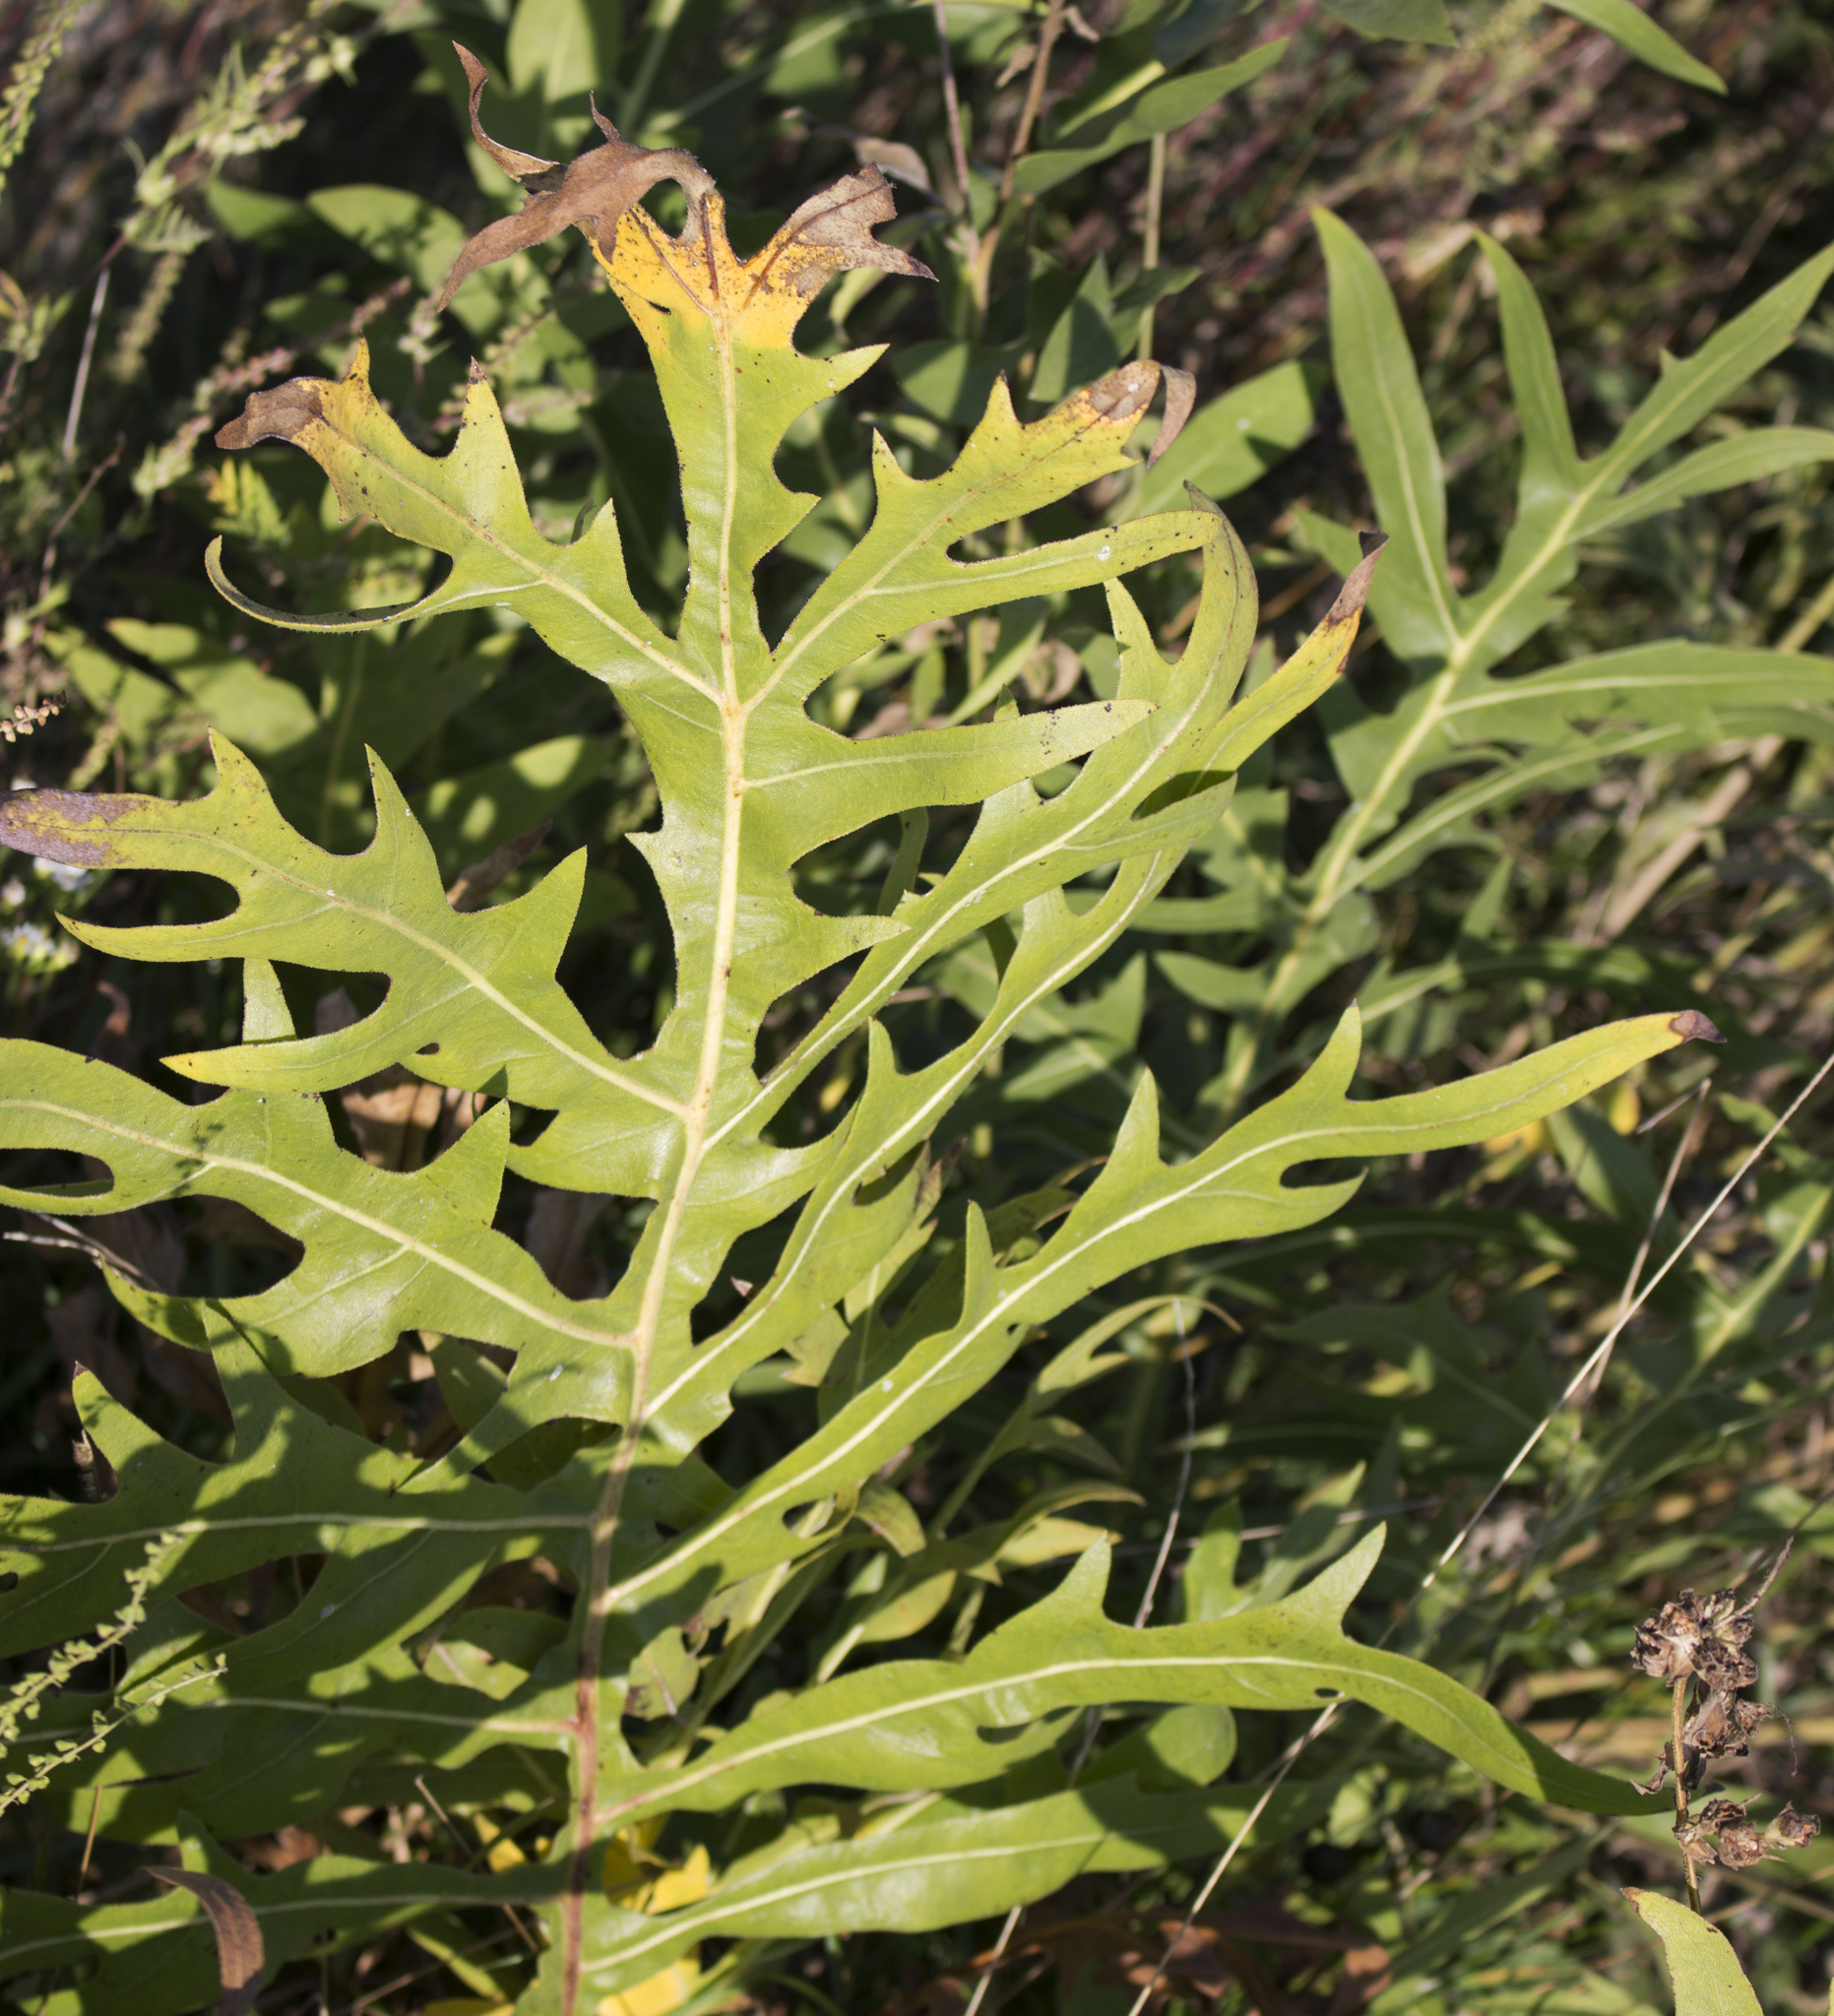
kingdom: Plantae
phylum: Tracheophyta
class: Magnoliopsida
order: Asterales
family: Asteraceae
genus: Silphium
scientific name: Silphium laciniatum
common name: Polarplant
